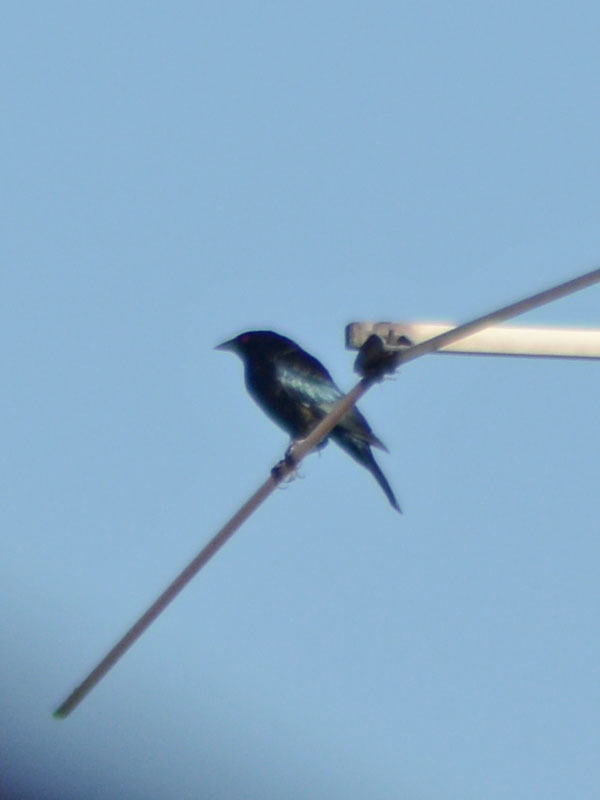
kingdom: Animalia
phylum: Chordata
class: Aves
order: Passeriformes
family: Icteridae
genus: Molothrus
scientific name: Molothrus aeneus
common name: Bronzed cowbird
